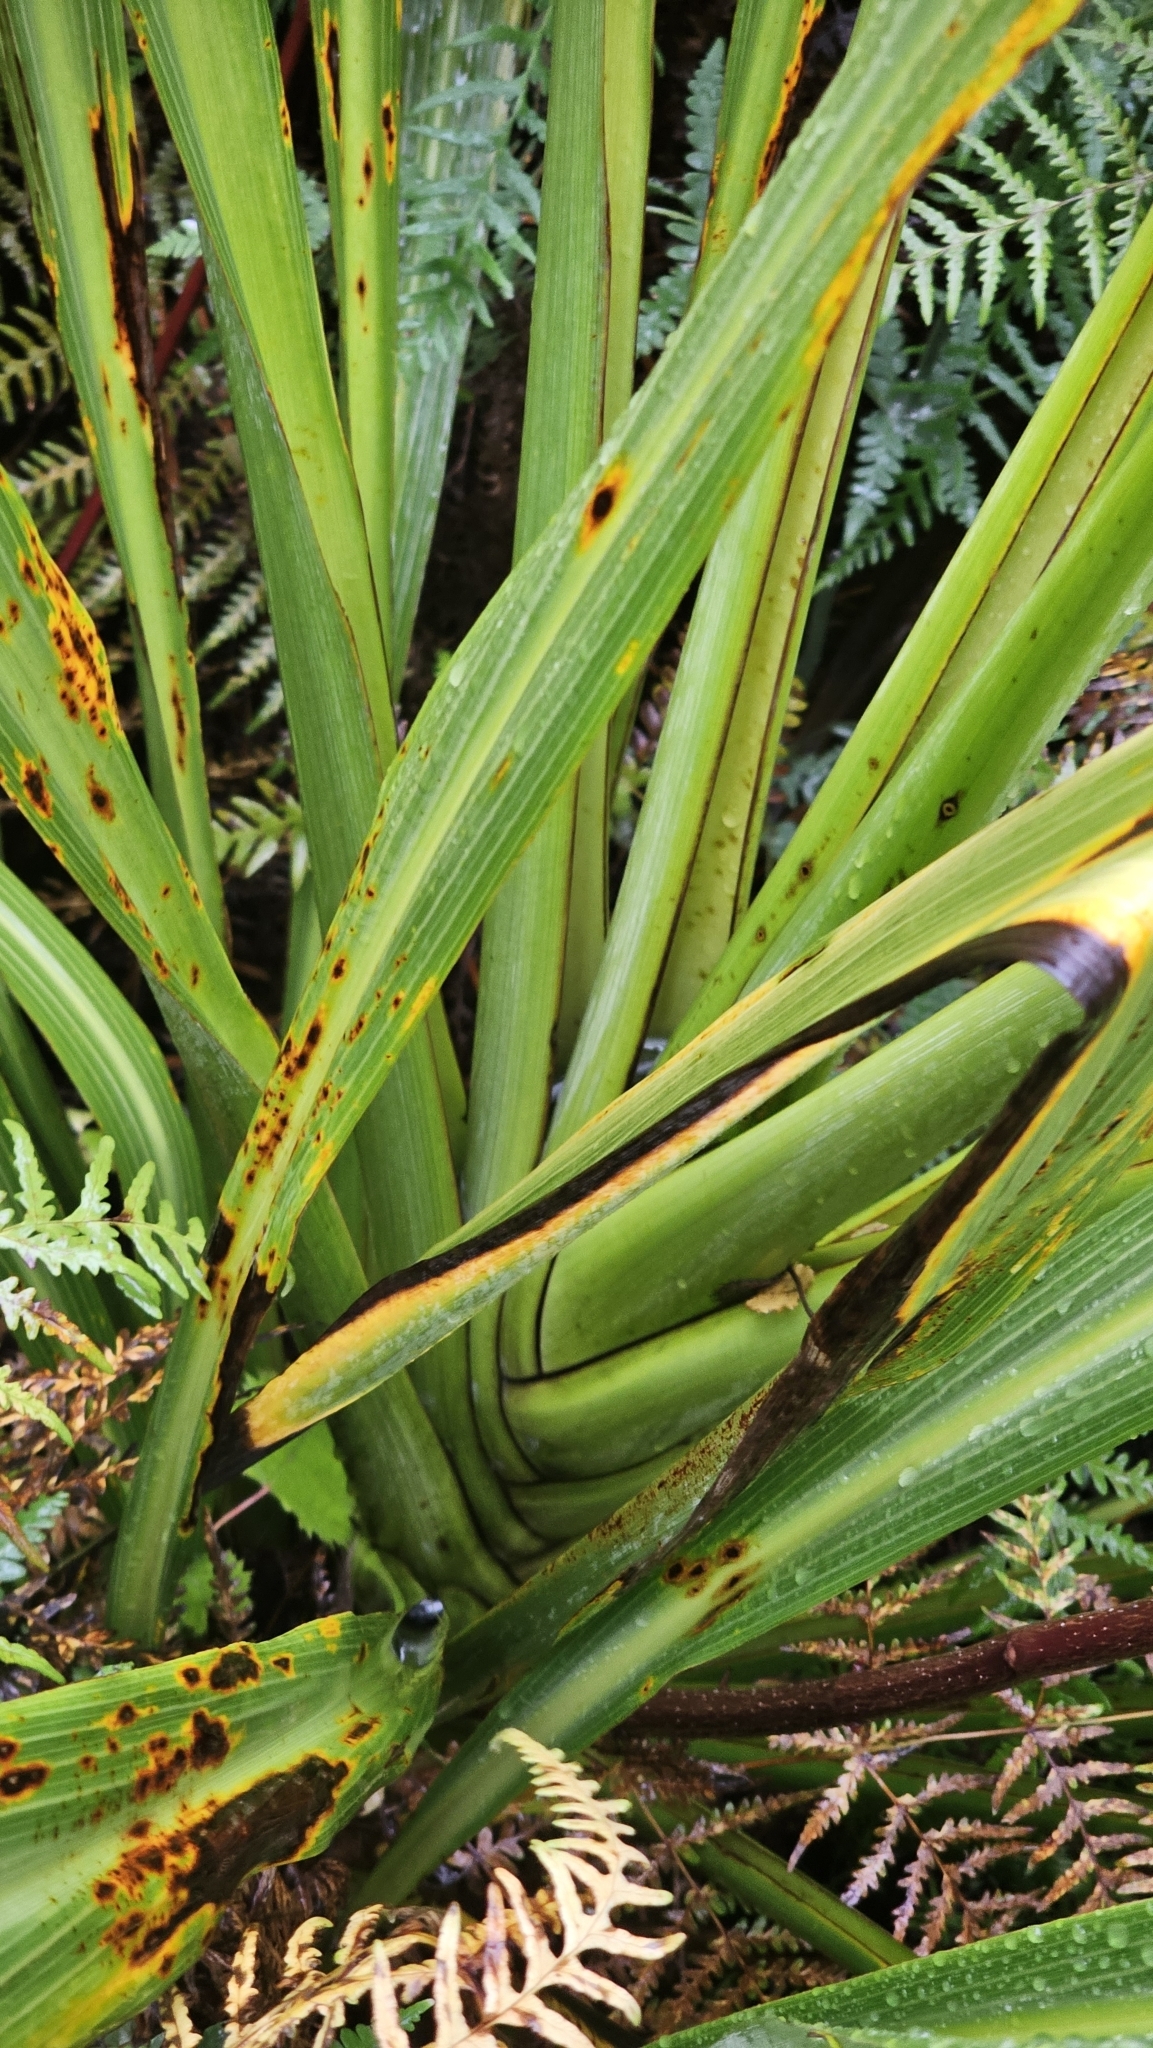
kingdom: Plantae
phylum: Tracheophyta
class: Liliopsida
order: Asparagales
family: Asparagaceae
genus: Cordyline
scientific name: Cordyline banksii
